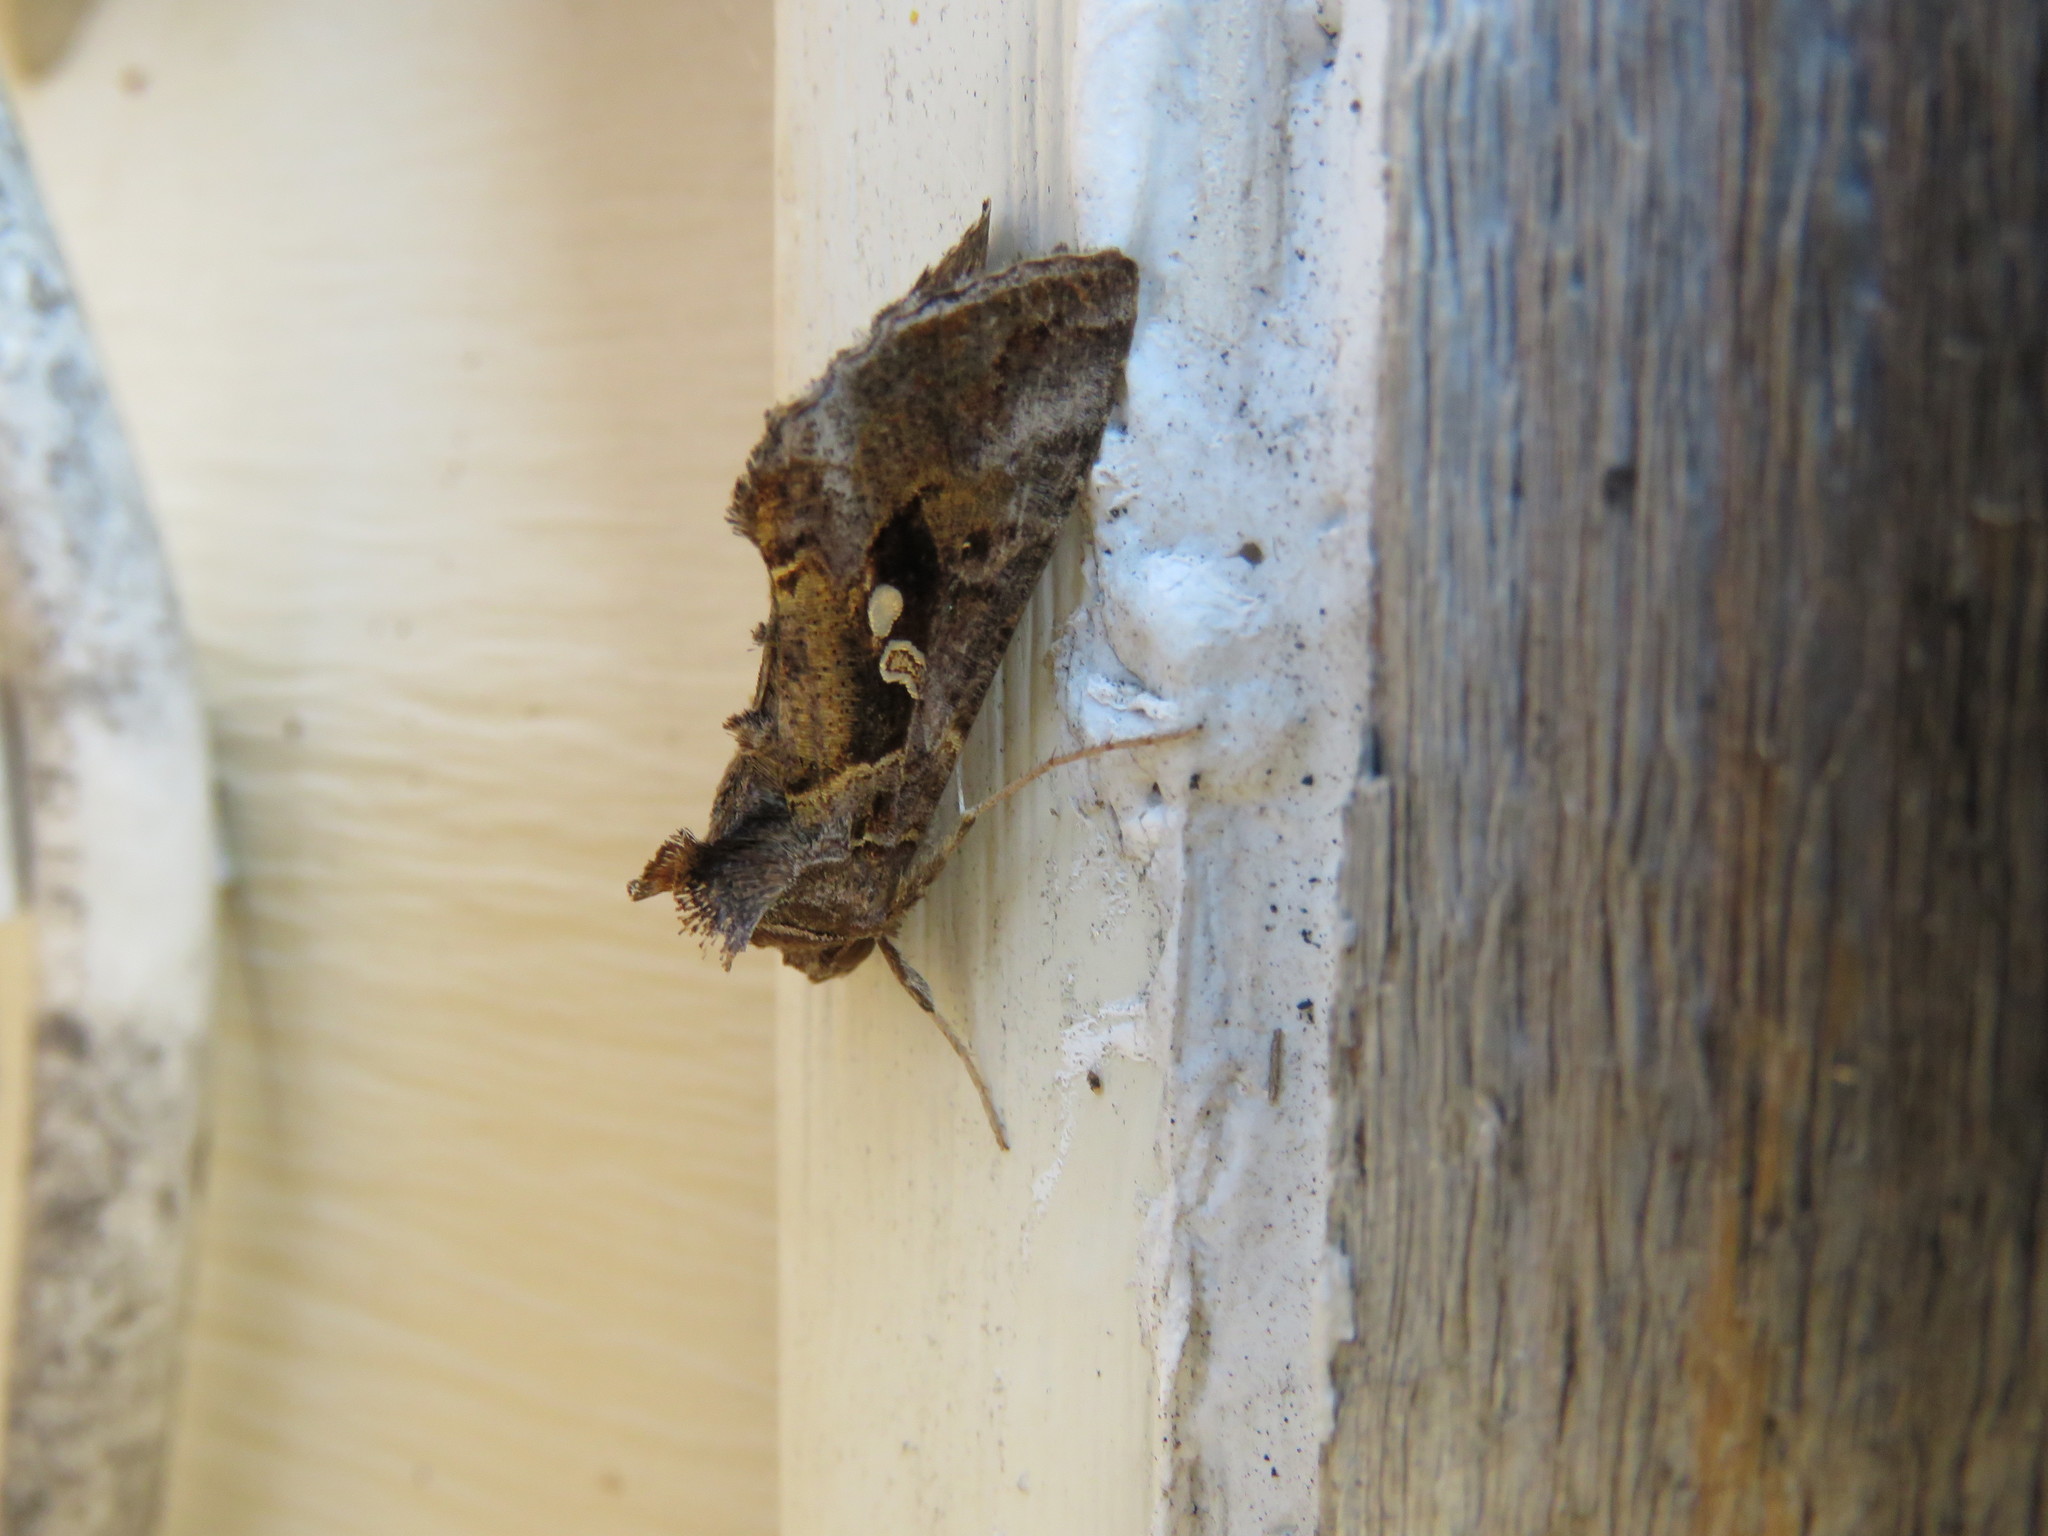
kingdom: Animalia
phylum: Arthropoda
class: Insecta
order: Lepidoptera
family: Noctuidae
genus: Autographa
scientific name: Autographa precationis
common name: Common looper moth
